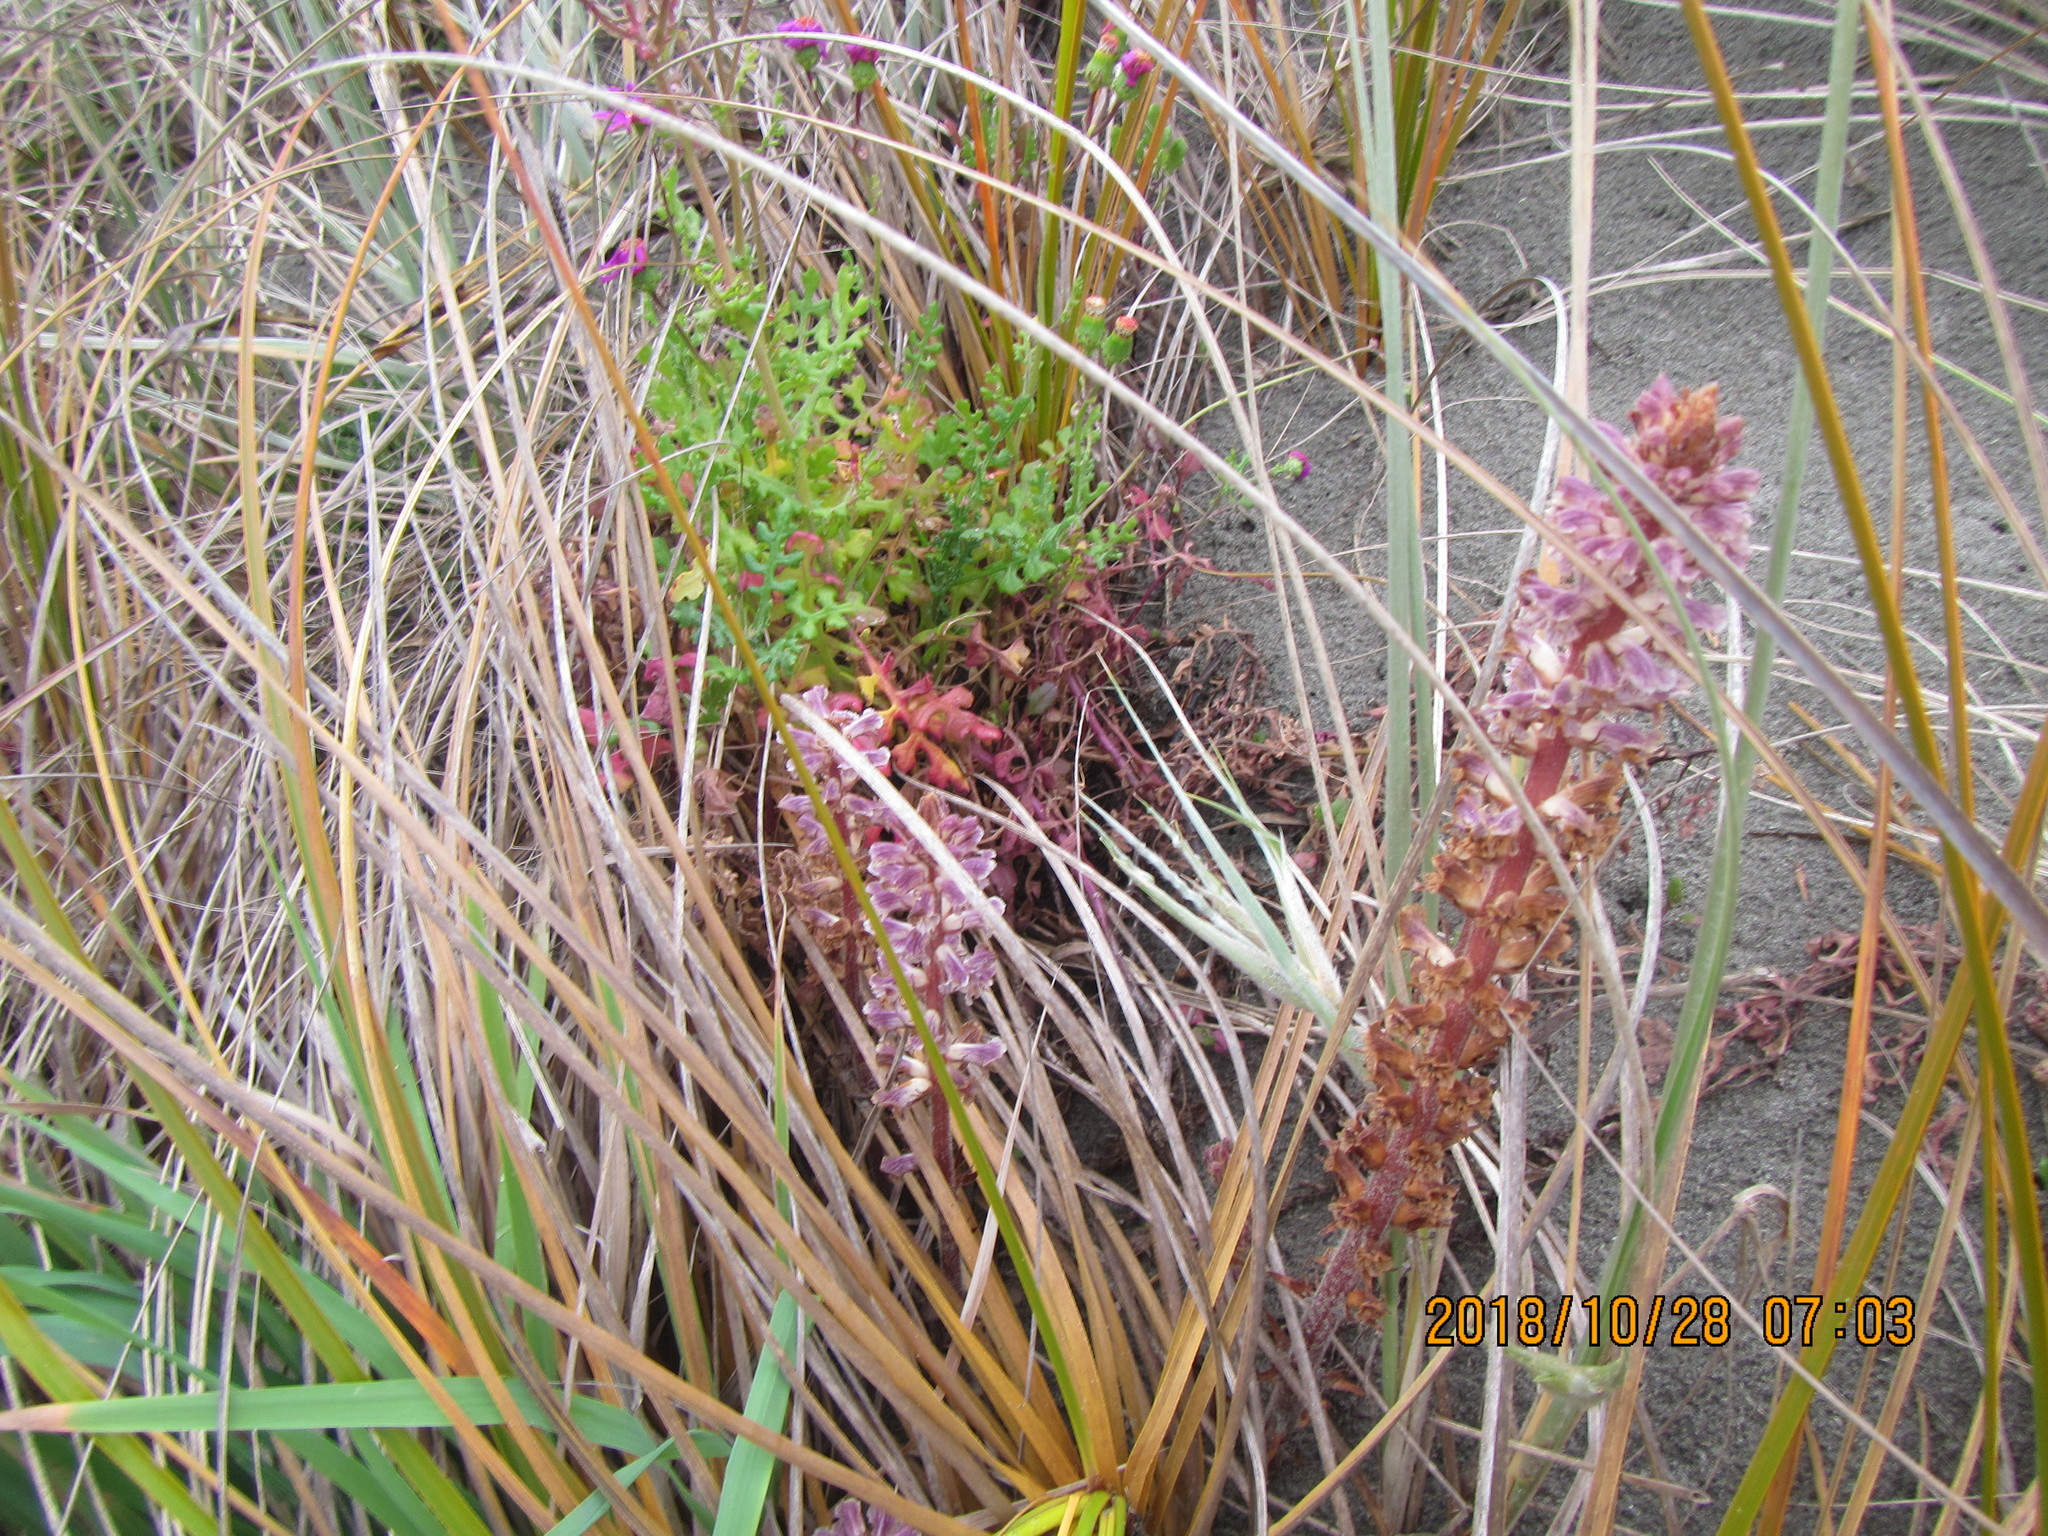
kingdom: Plantae
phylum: Tracheophyta
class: Magnoliopsida
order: Lamiales
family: Orobanchaceae
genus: Orobanche
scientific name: Orobanche minor
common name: Common broomrape
